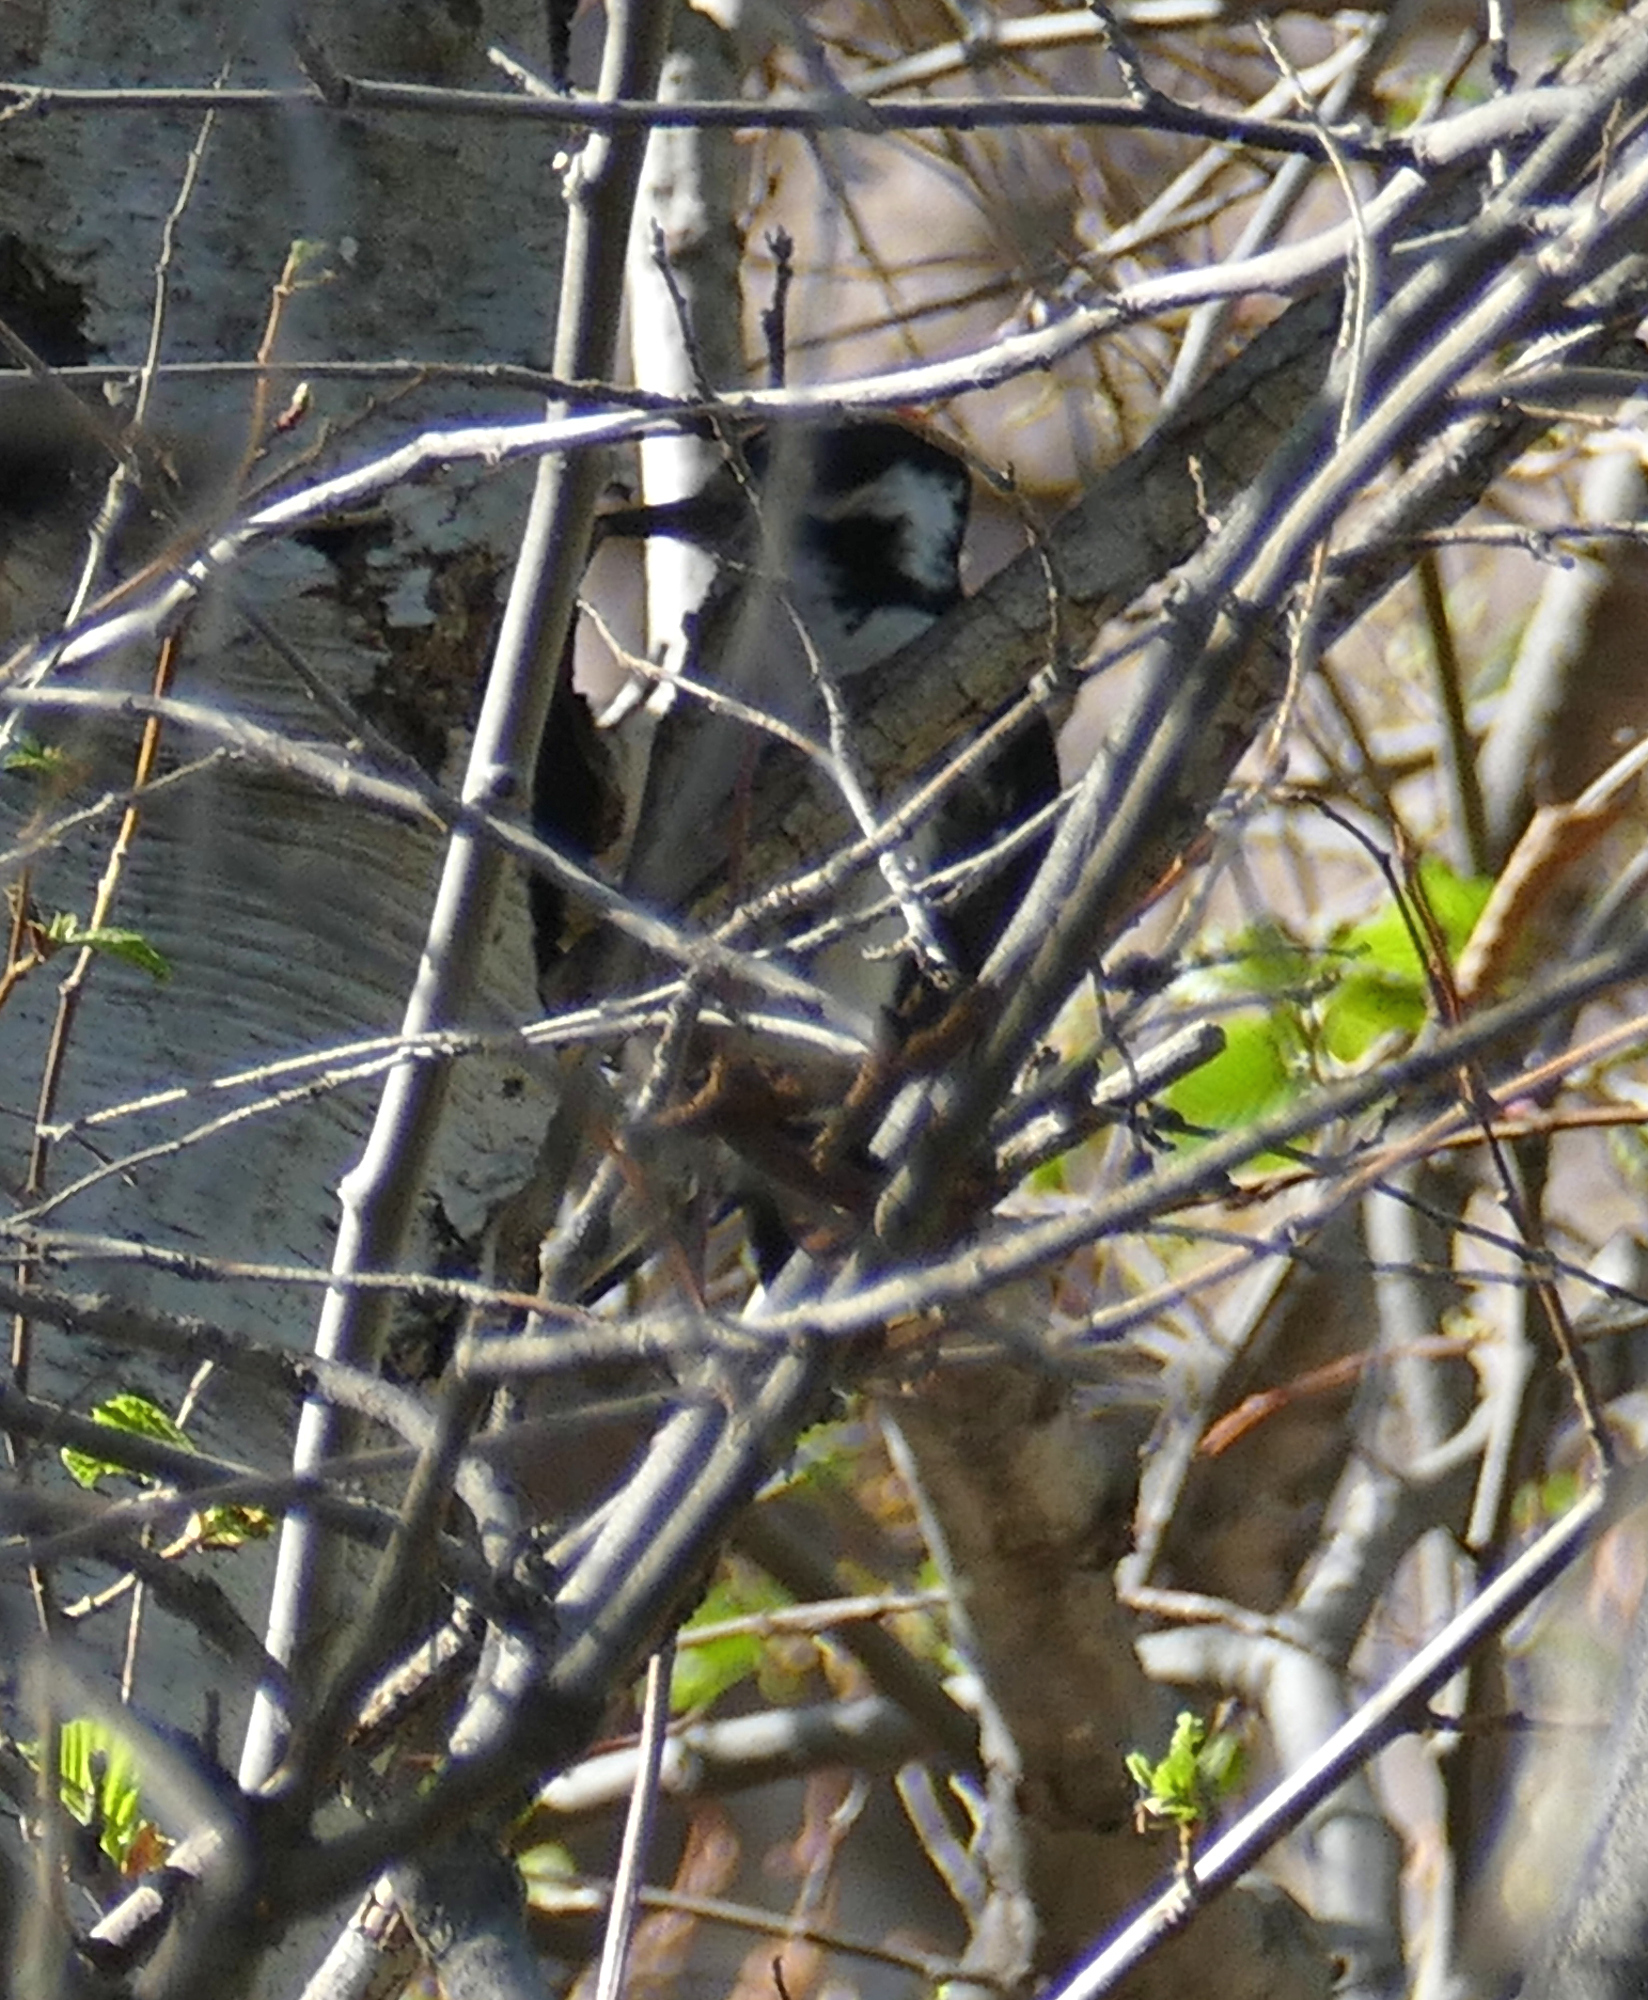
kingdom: Animalia
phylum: Chordata
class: Aves
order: Piciformes
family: Picidae
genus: Leuconotopicus
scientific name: Leuconotopicus villosus
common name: Hairy woodpecker
